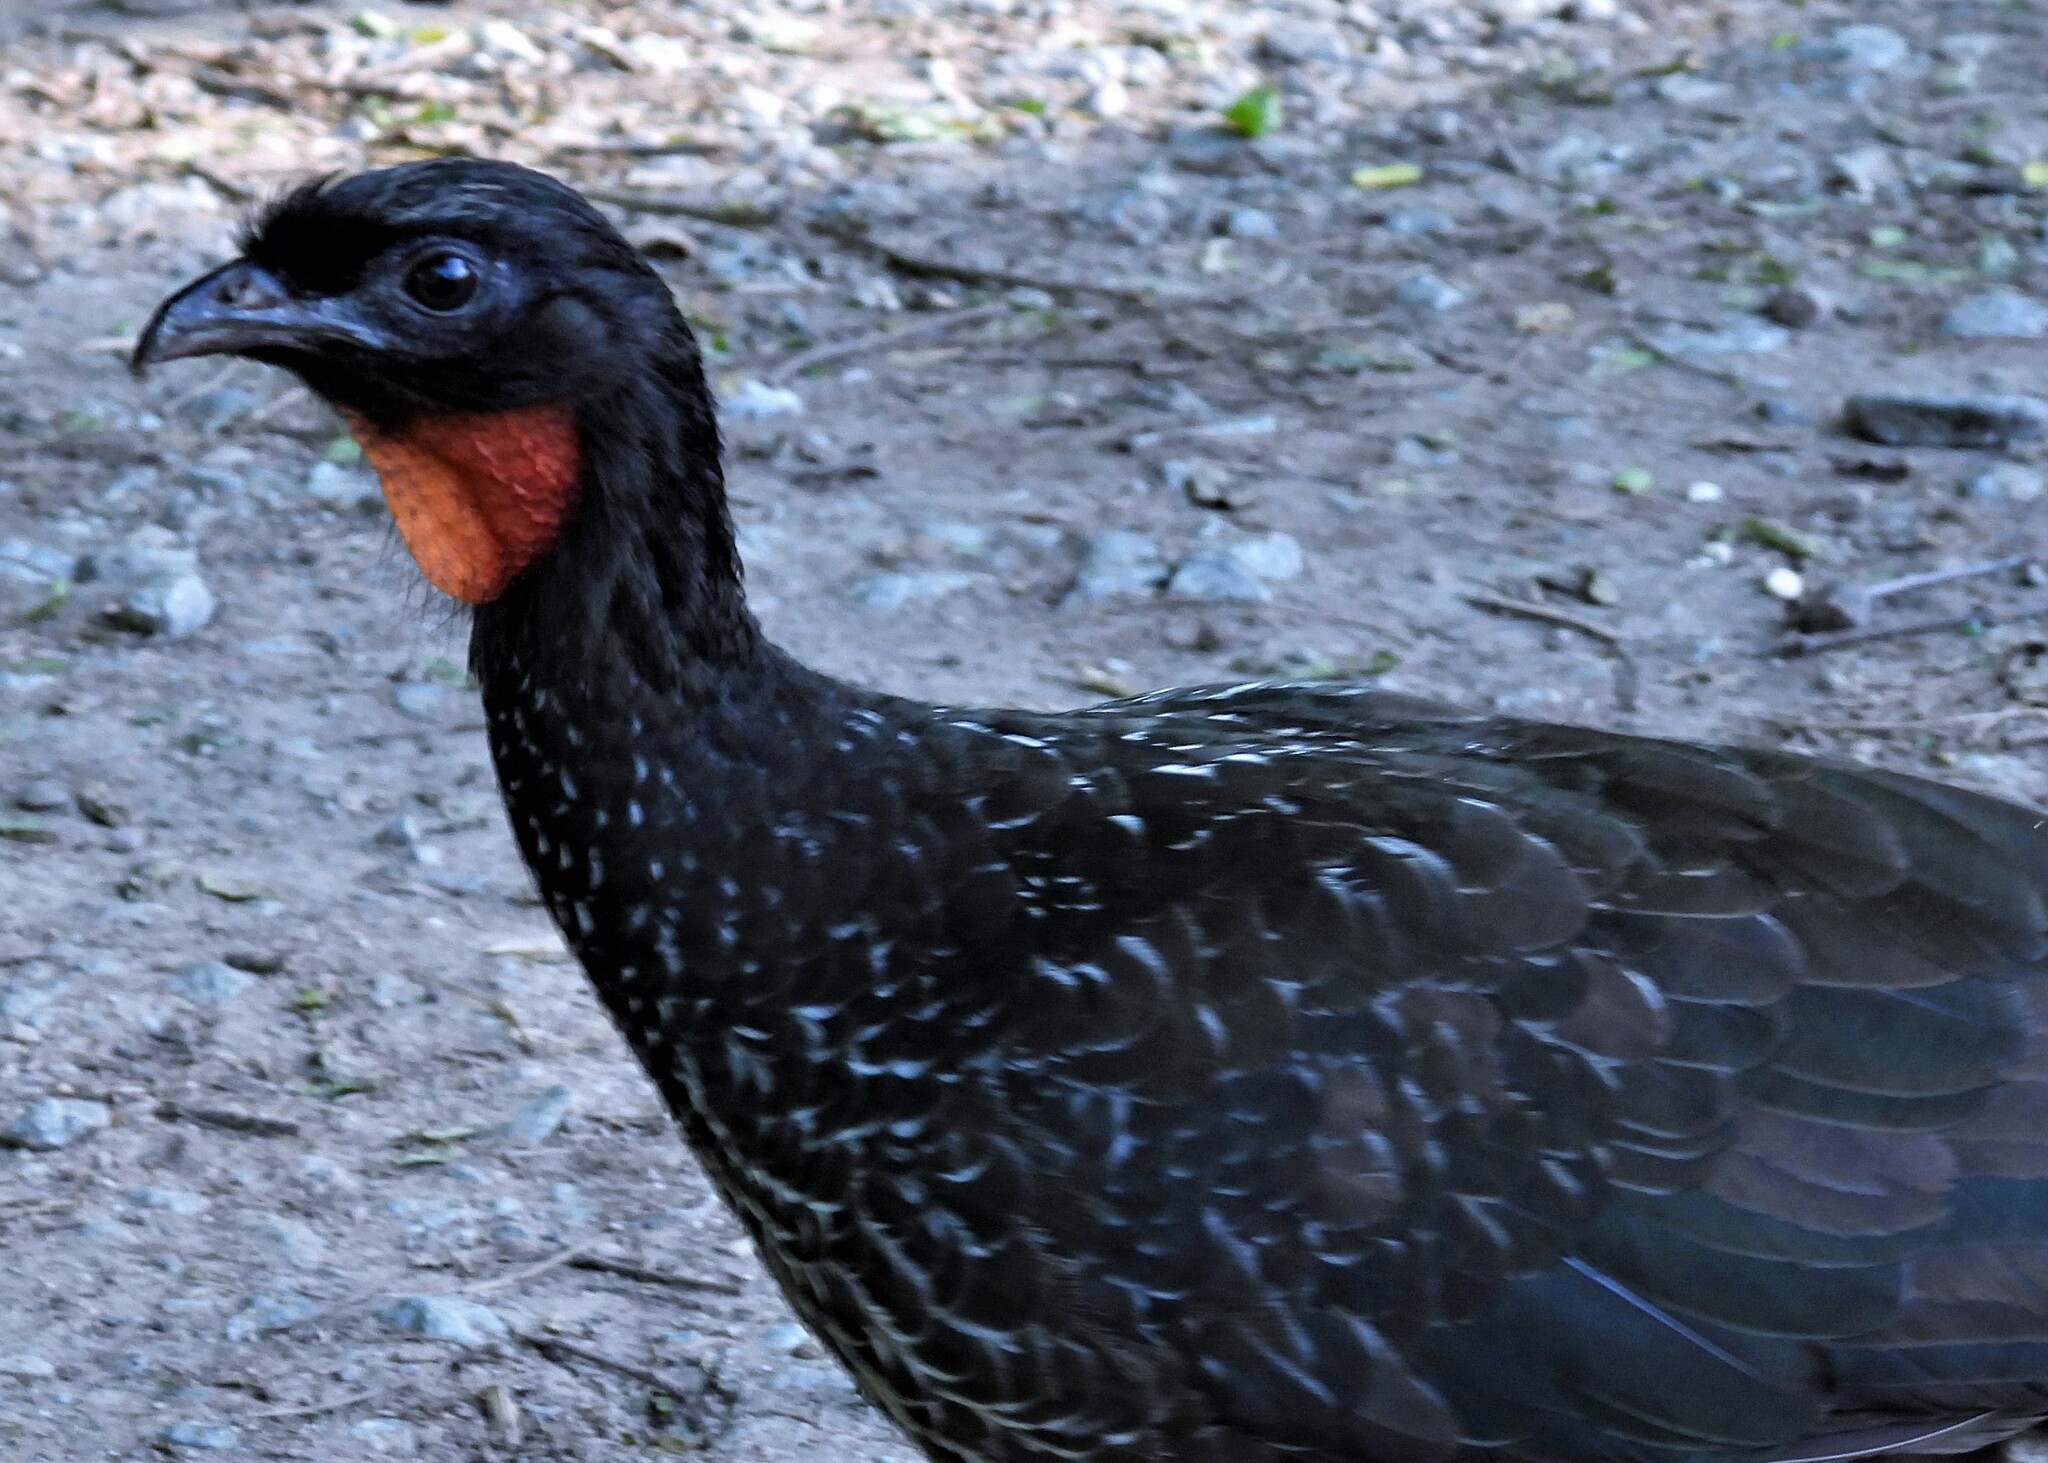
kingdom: Animalia
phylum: Chordata
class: Aves
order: Galliformes
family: Cracidae
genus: Penelope
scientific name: Penelope obscura
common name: Dusky-legged guan
